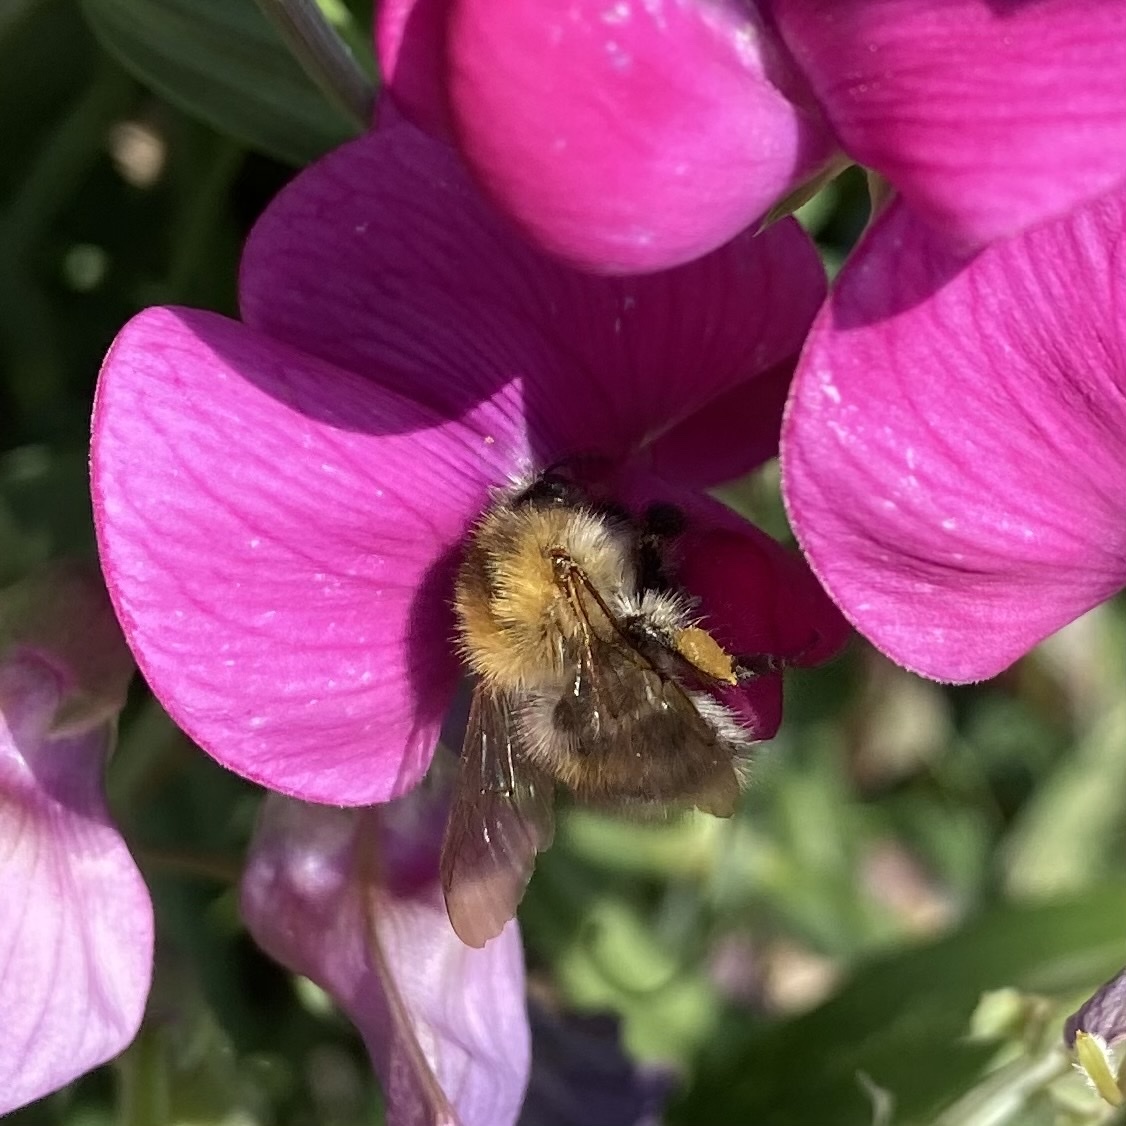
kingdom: Animalia
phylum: Arthropoda
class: Insecta
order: Hymenoptera
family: Apidae
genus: Bombus
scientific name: Bombus pascuorum
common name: Common carder bee
